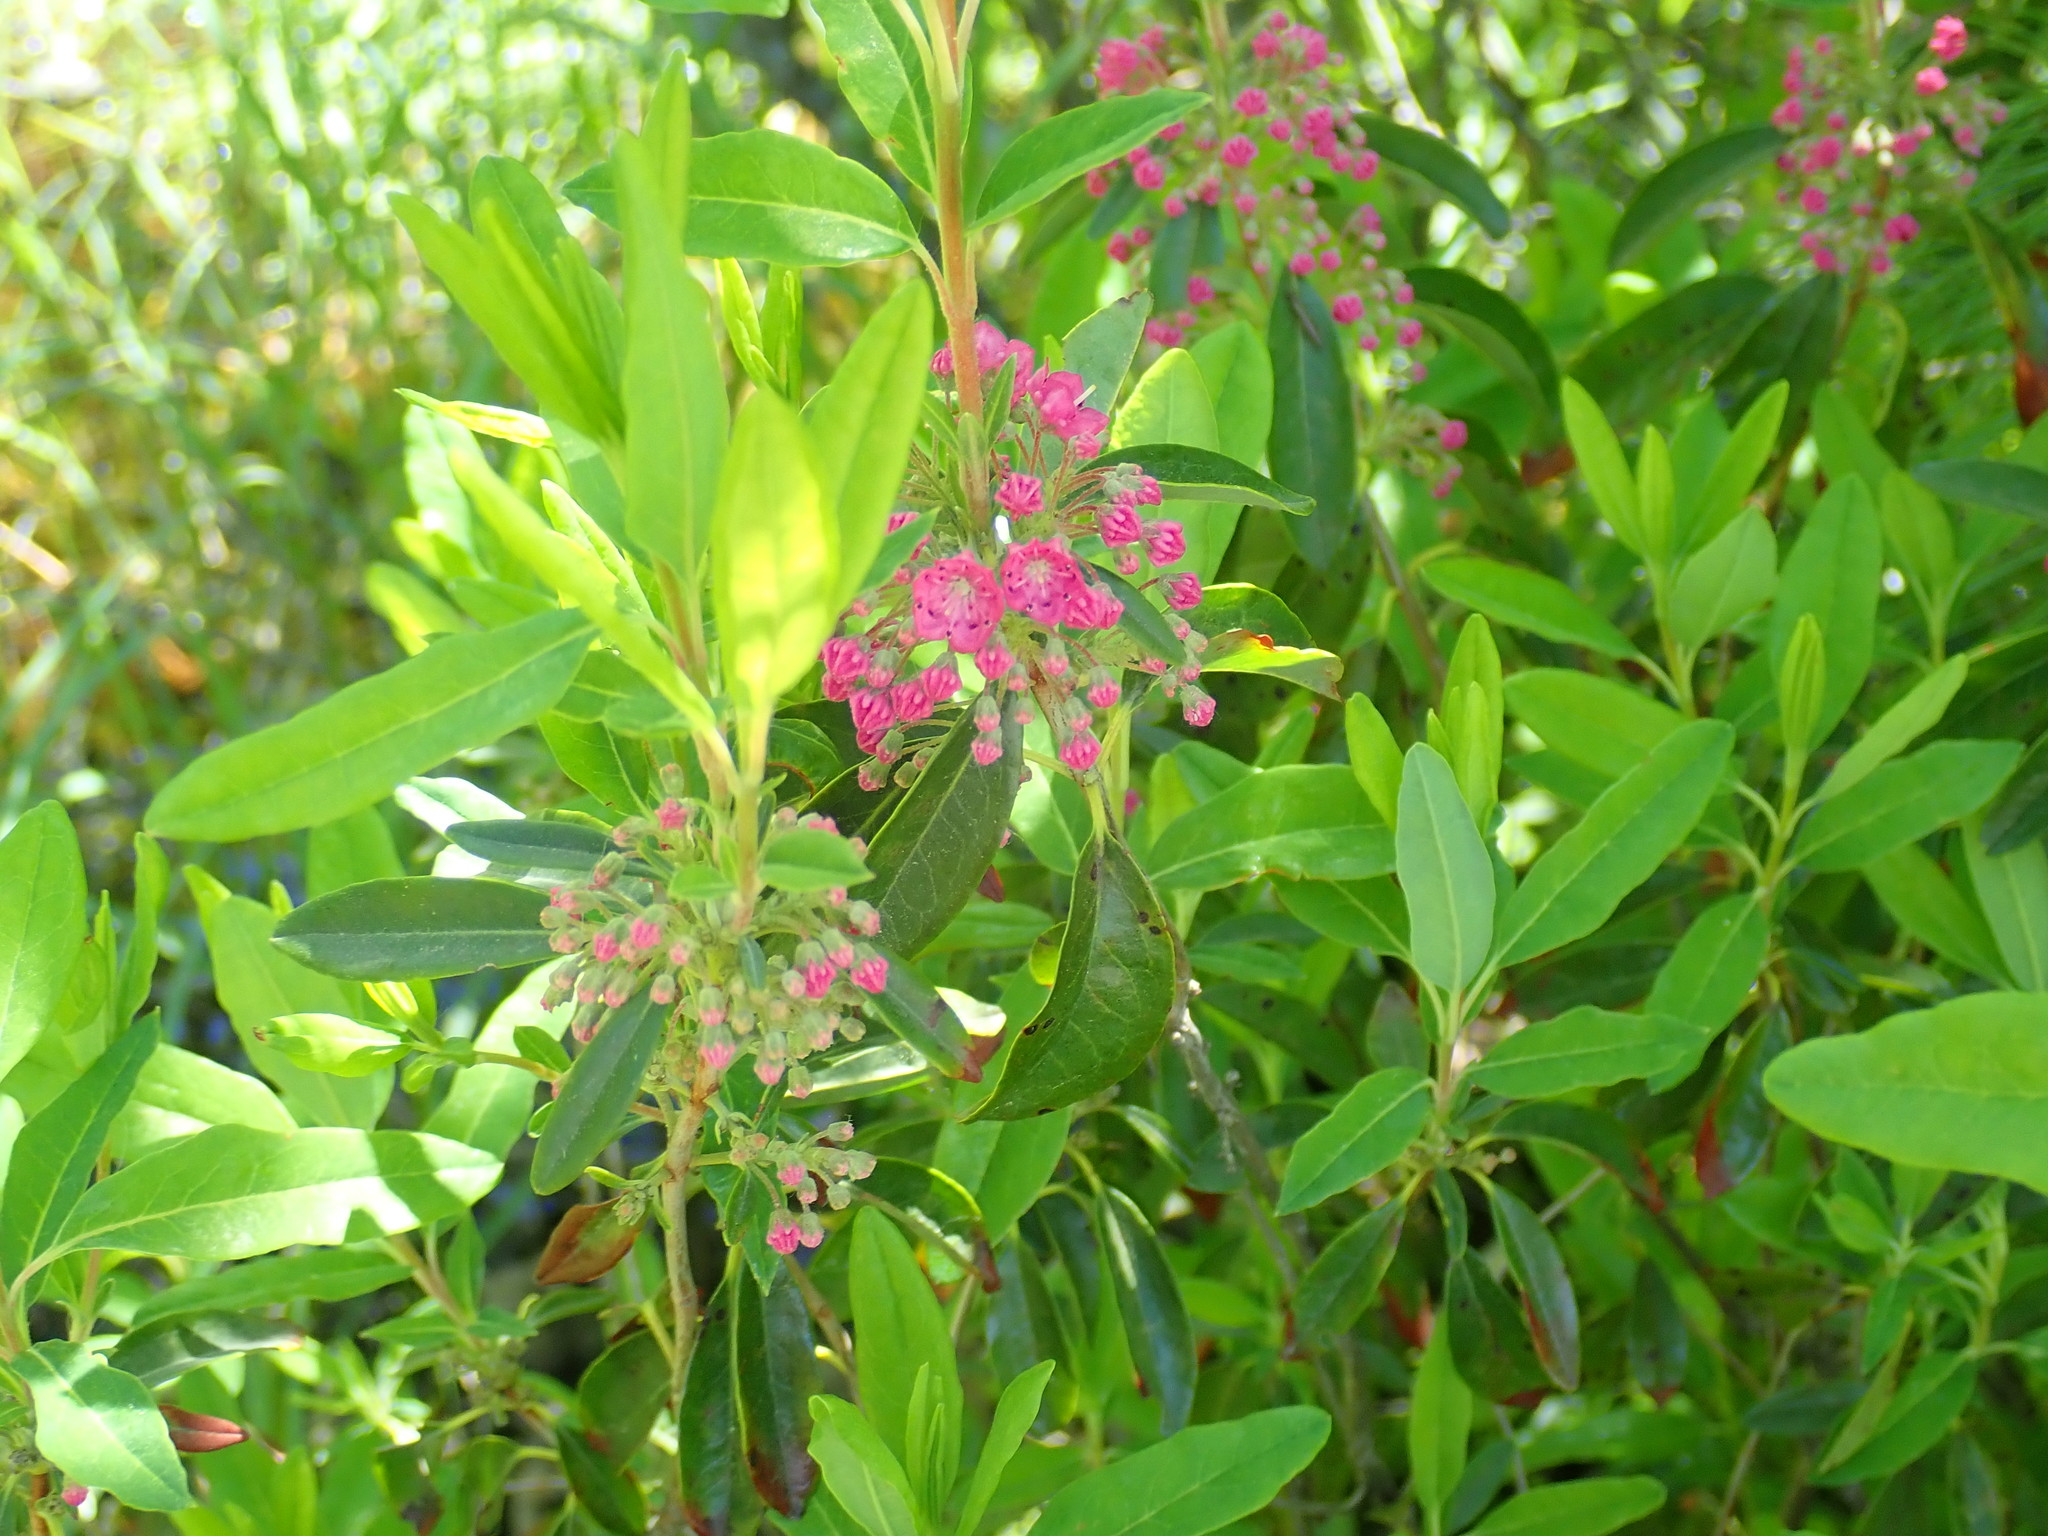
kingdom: Plantae
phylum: Tracheophyta
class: Magnoliopsida
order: Ericales
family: Ericaceae
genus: Kalmia
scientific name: Kalmia angustifolia
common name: Sheep-laurel
